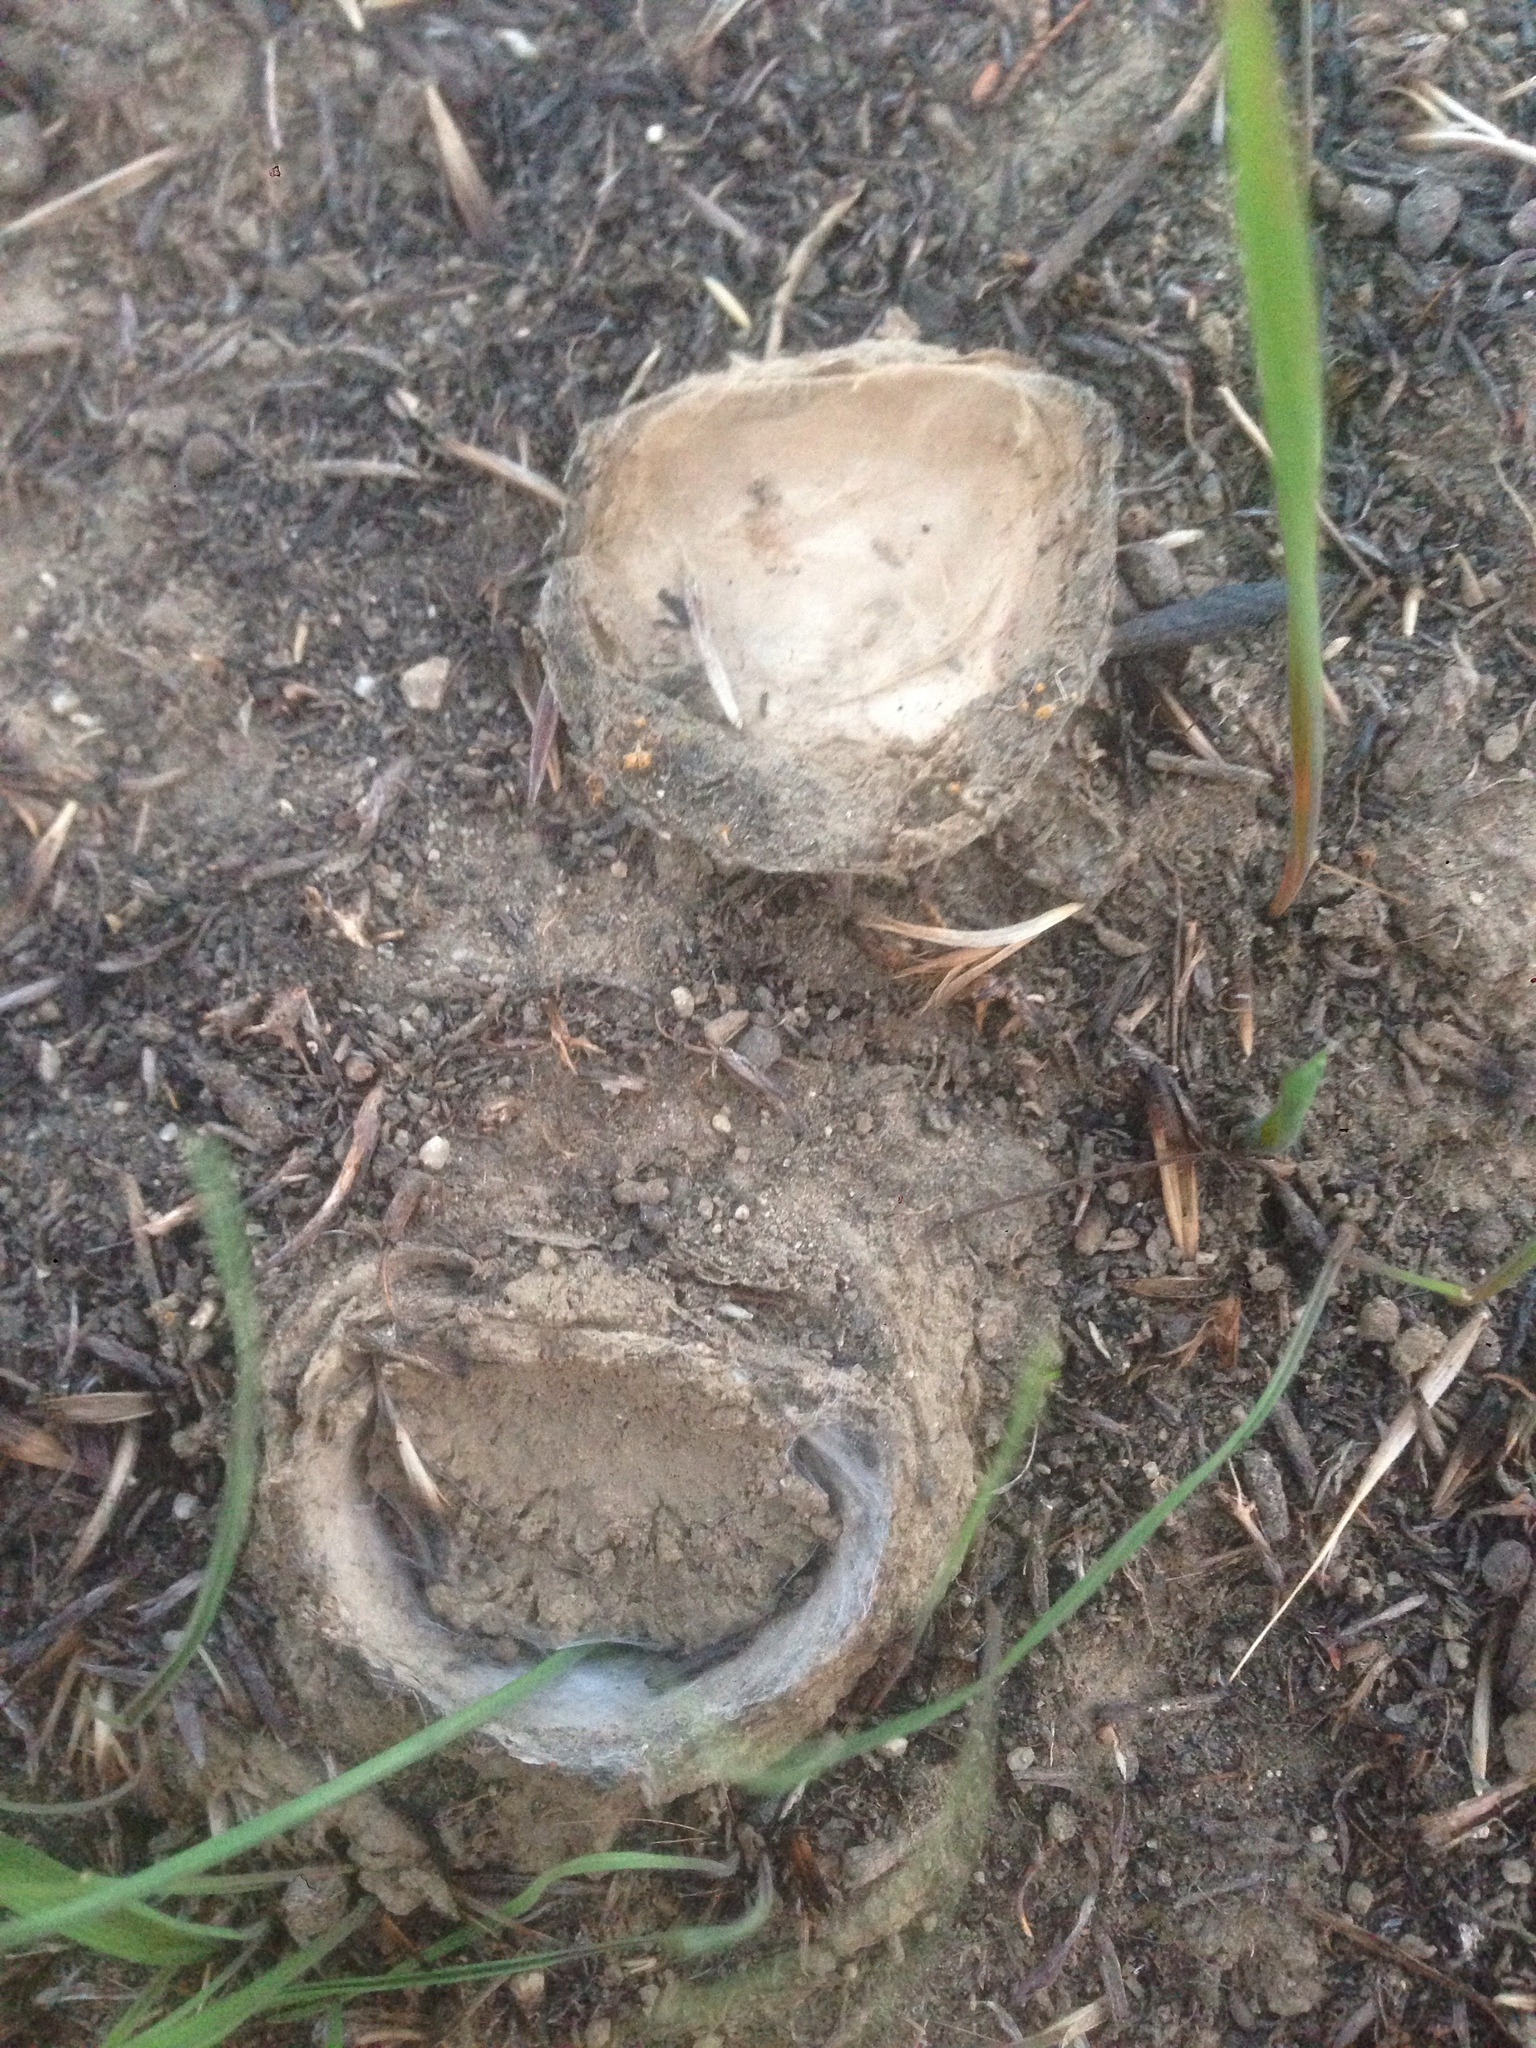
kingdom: Animalia
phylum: Arthropoda
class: Arachnida
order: Araneae
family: Halonoproctidae
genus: Bothriocyrtum
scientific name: Bothriocyrtum californicum
